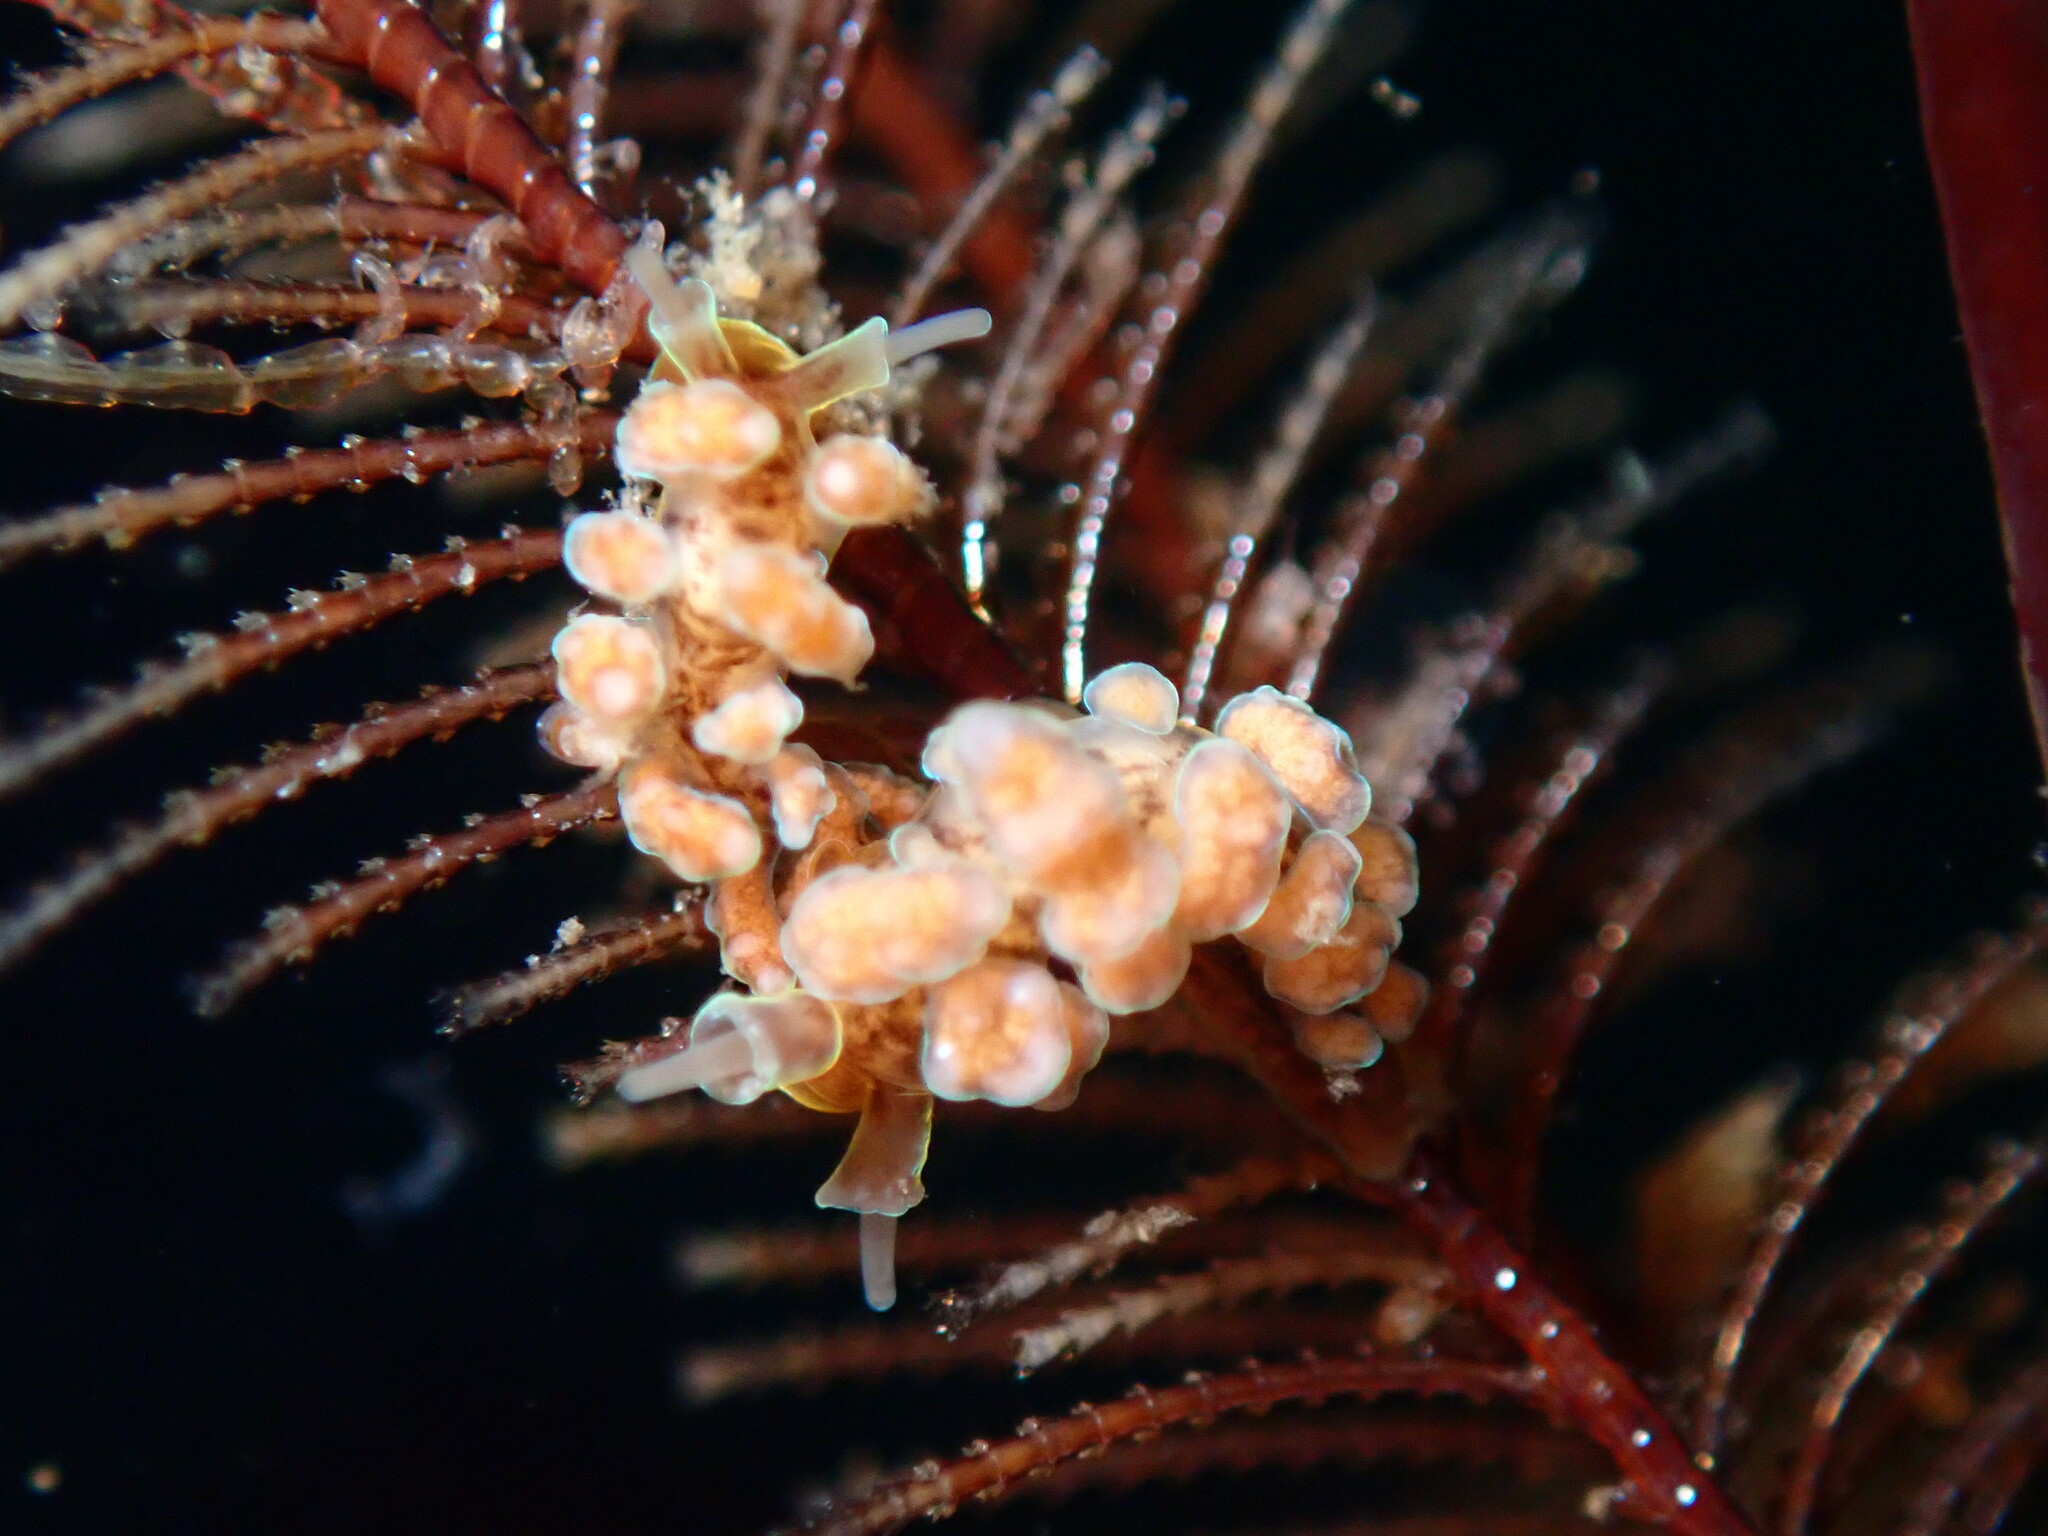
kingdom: Animalia
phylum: Mollusca
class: Gastropoda
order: Nudibranchia
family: Dotidae
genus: Doto
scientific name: Doto columbiana
